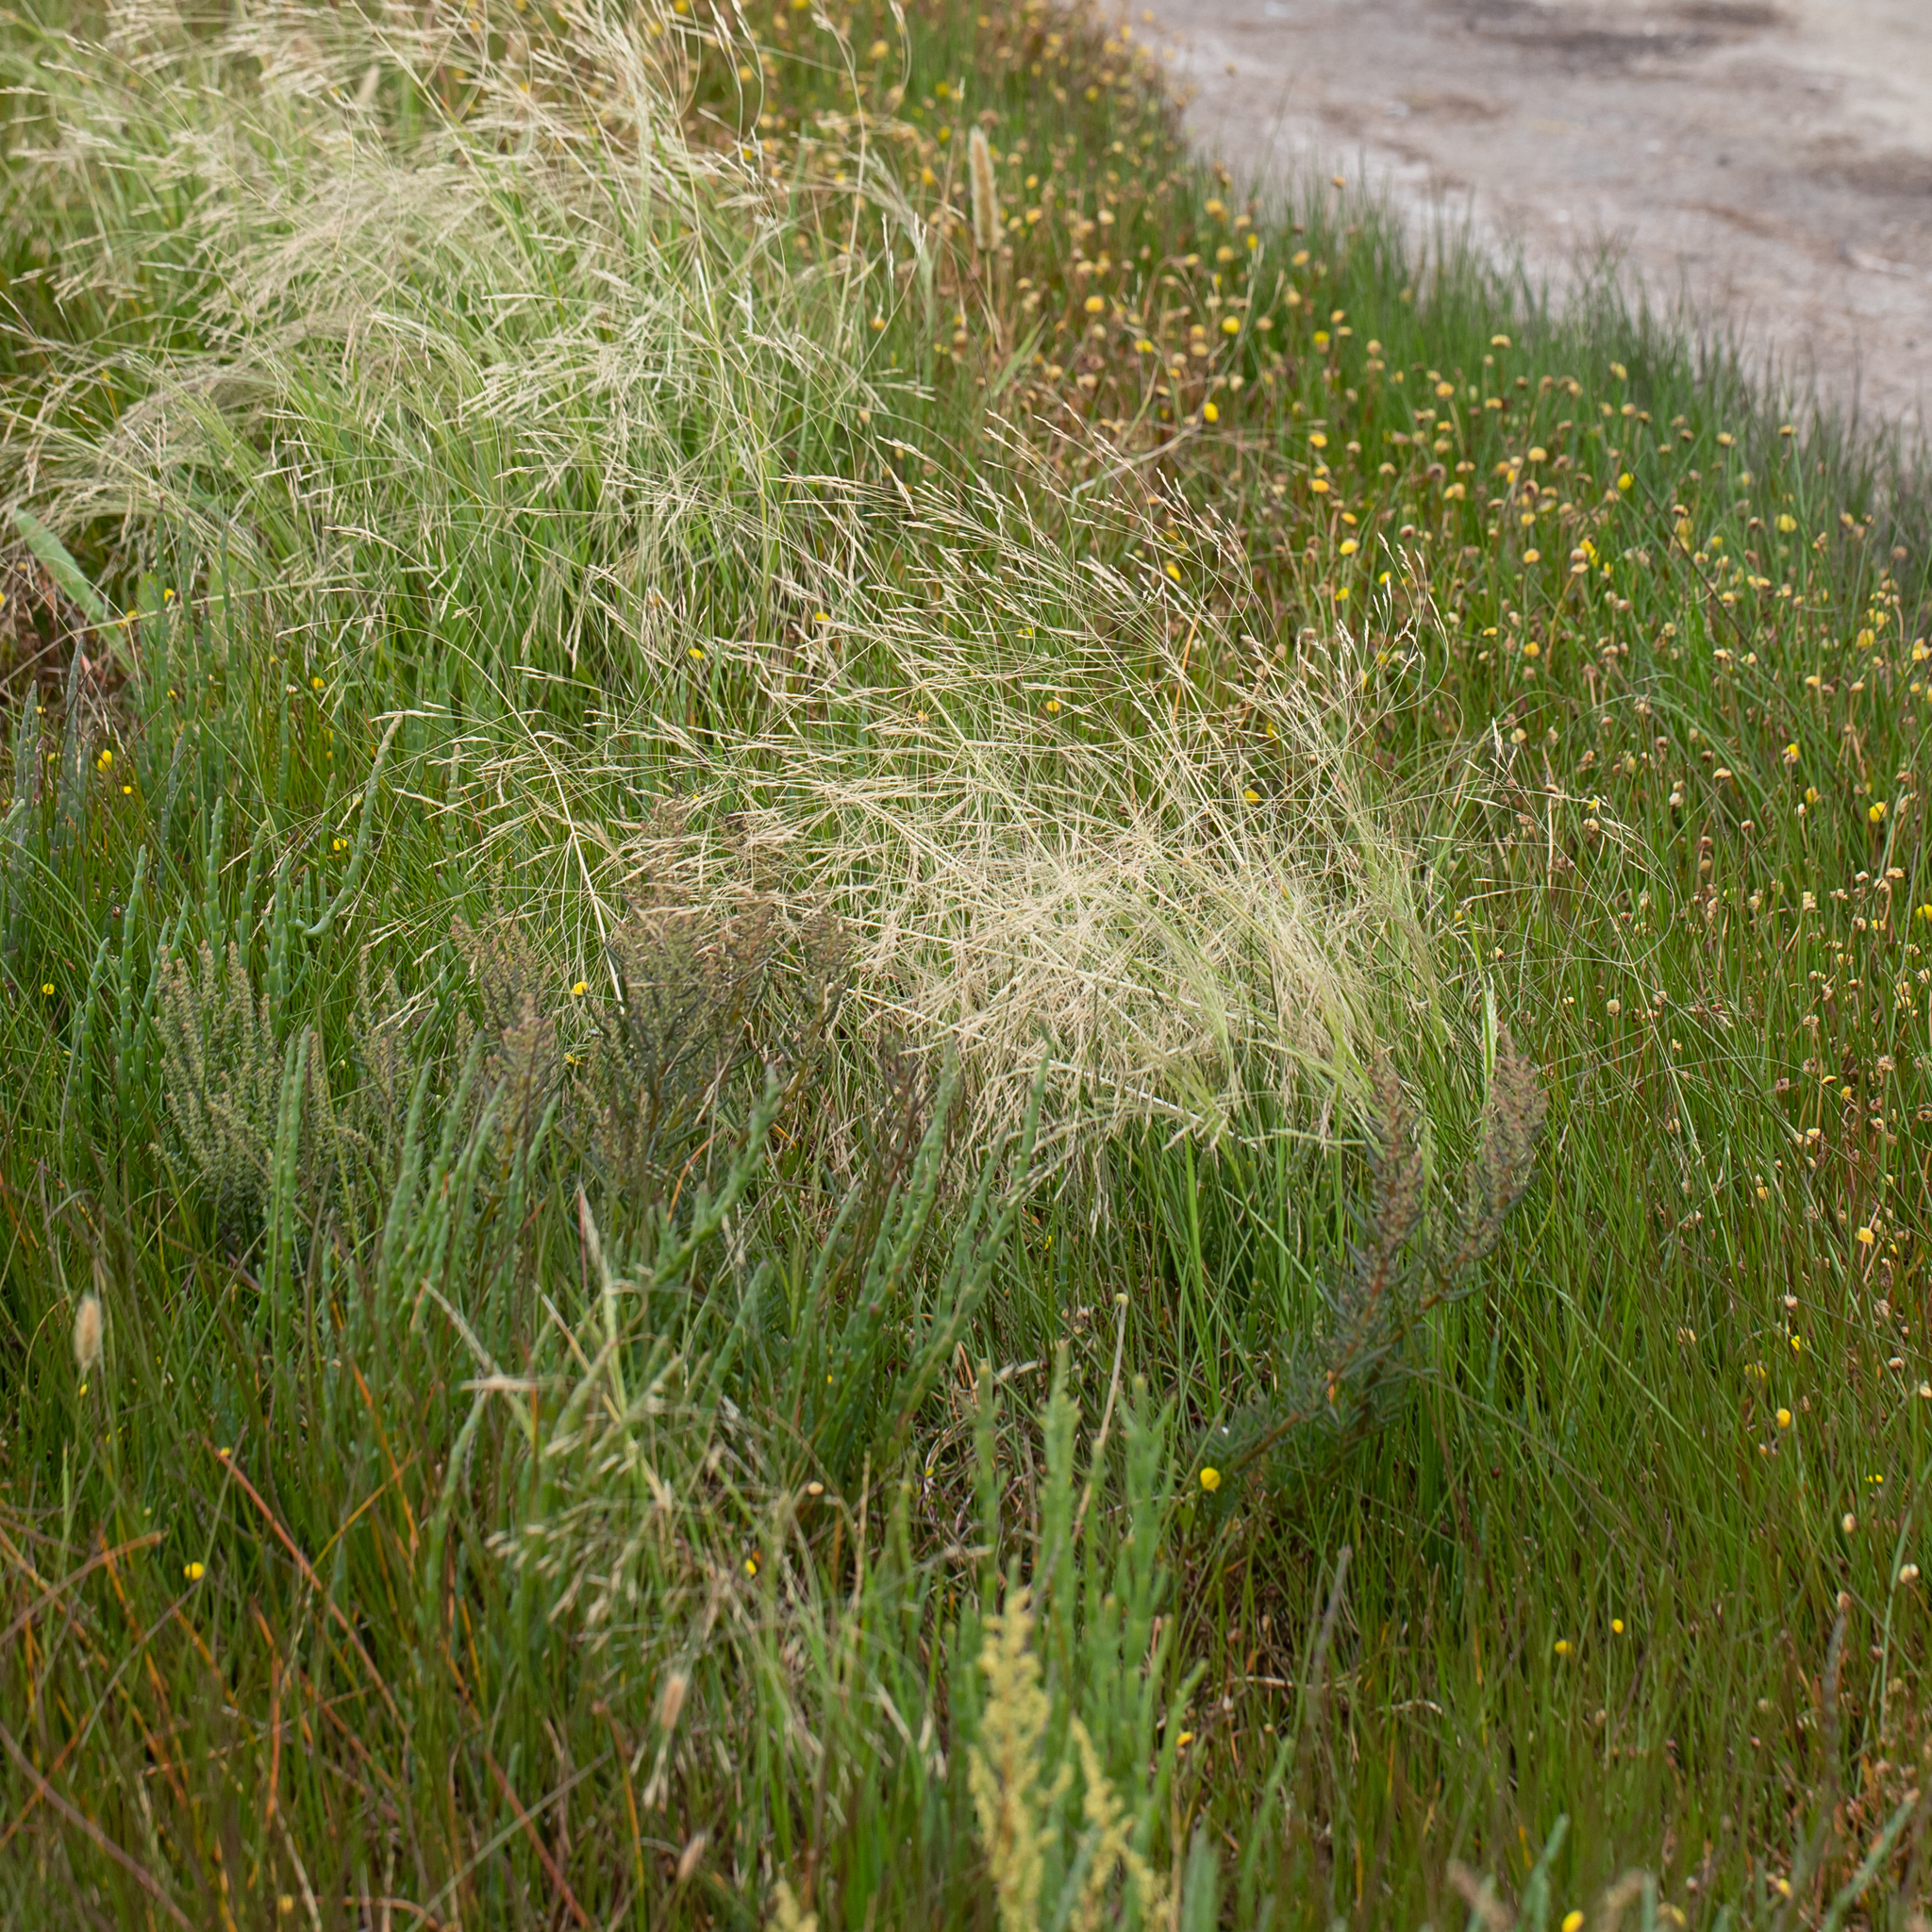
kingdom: Plantae
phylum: Tracheophyta
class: Liliopsida
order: Poales
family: Poaceae
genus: Lachnagrostis
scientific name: Lachnagrostis filiformis
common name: Bentgrass
